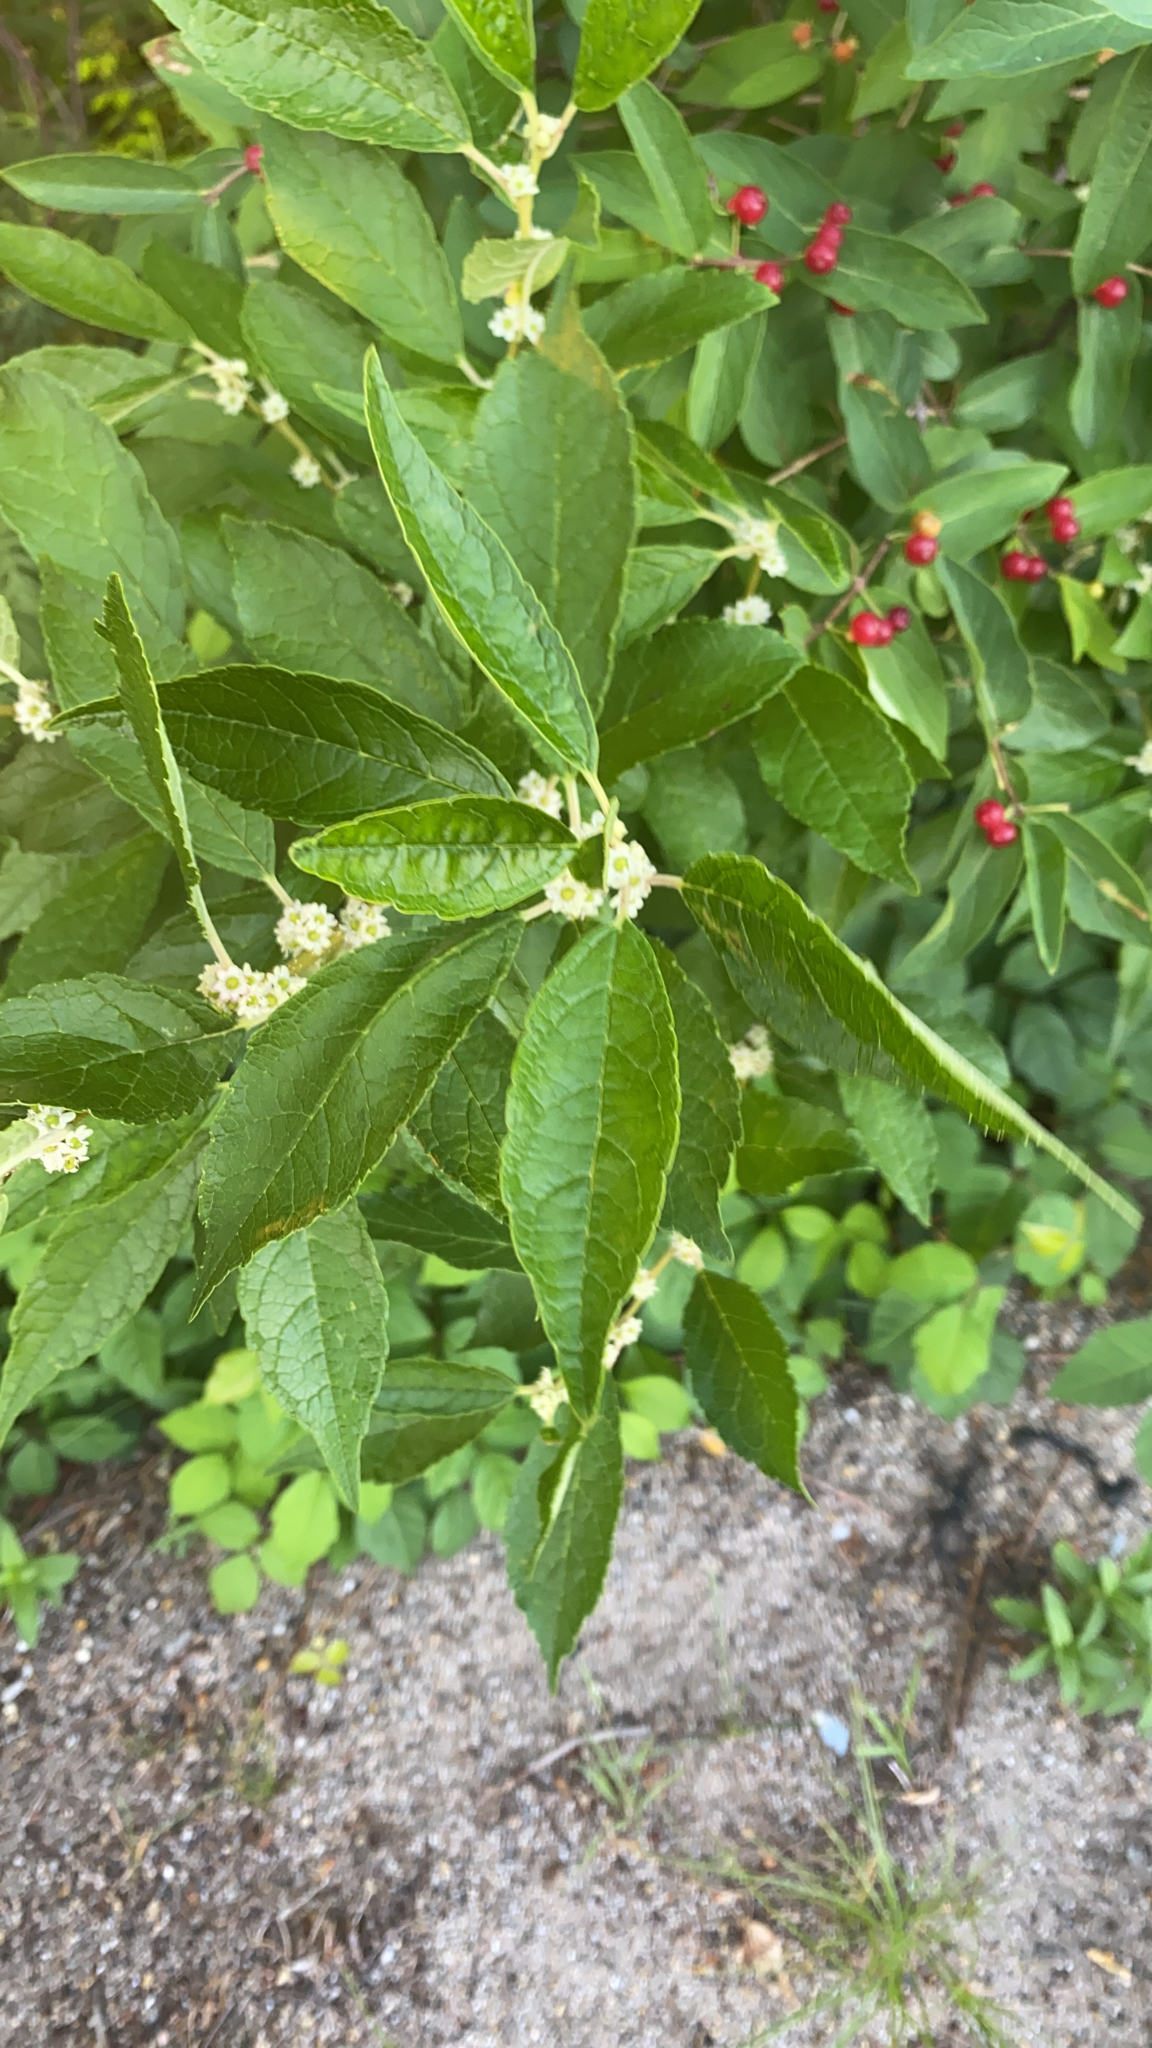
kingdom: Plantae
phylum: Tracheophyta
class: Magnoliopsida
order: Aquifoliales
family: Aquifoliaceae
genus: Ilex
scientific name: Ilex verticillata
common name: Virginia winterberry
